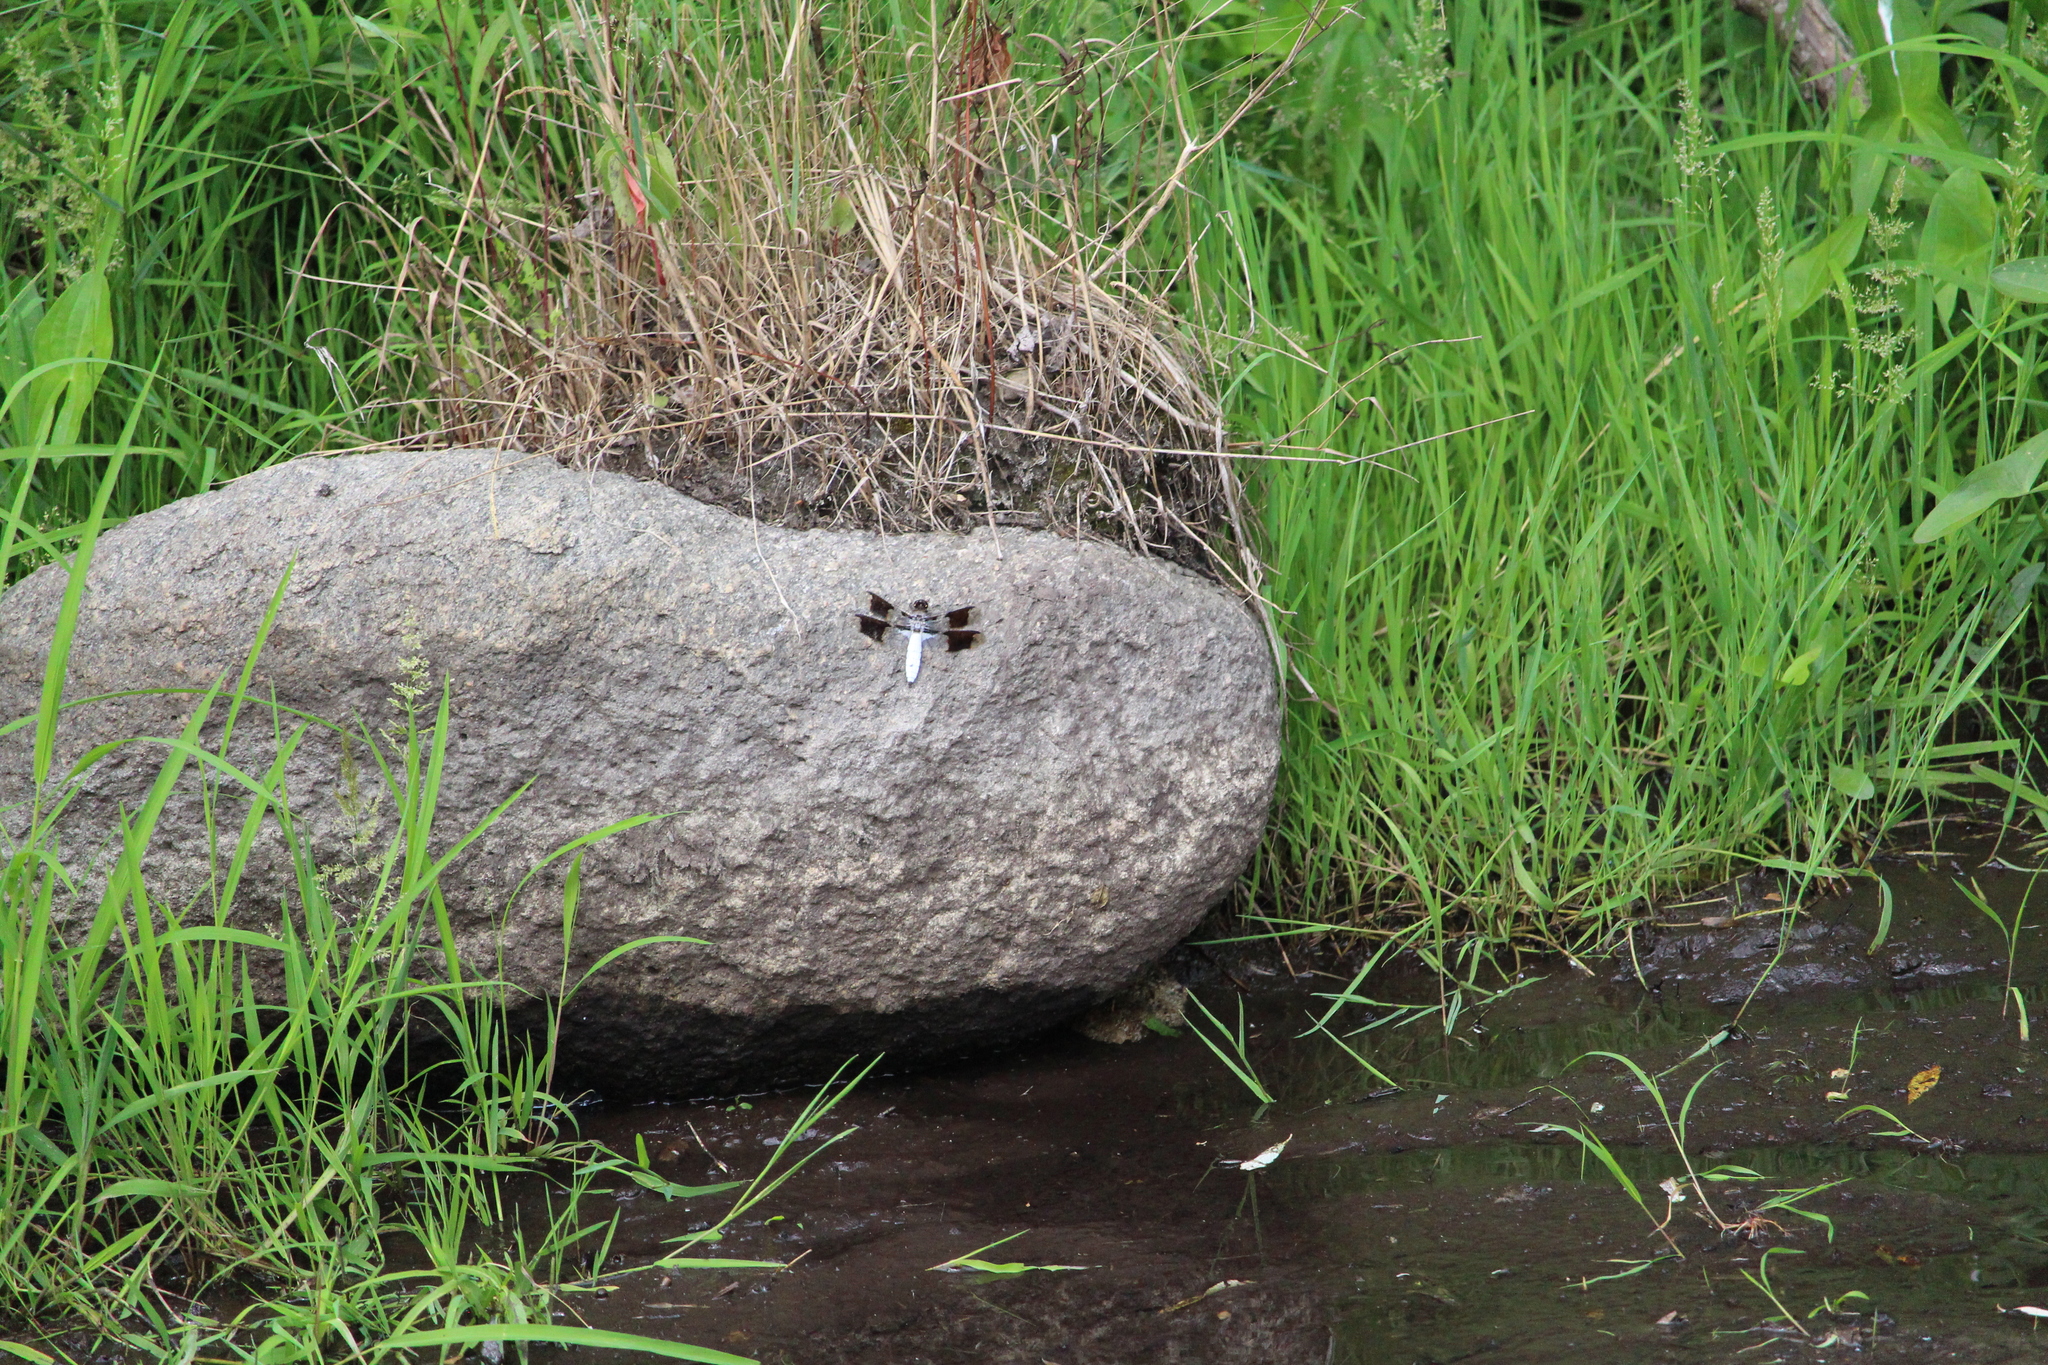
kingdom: Animalia
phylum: Arthropoda
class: Insecta
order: Odonata
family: Libellulidae
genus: Plathemis
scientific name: Plathemis lydia
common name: Common whitetail
